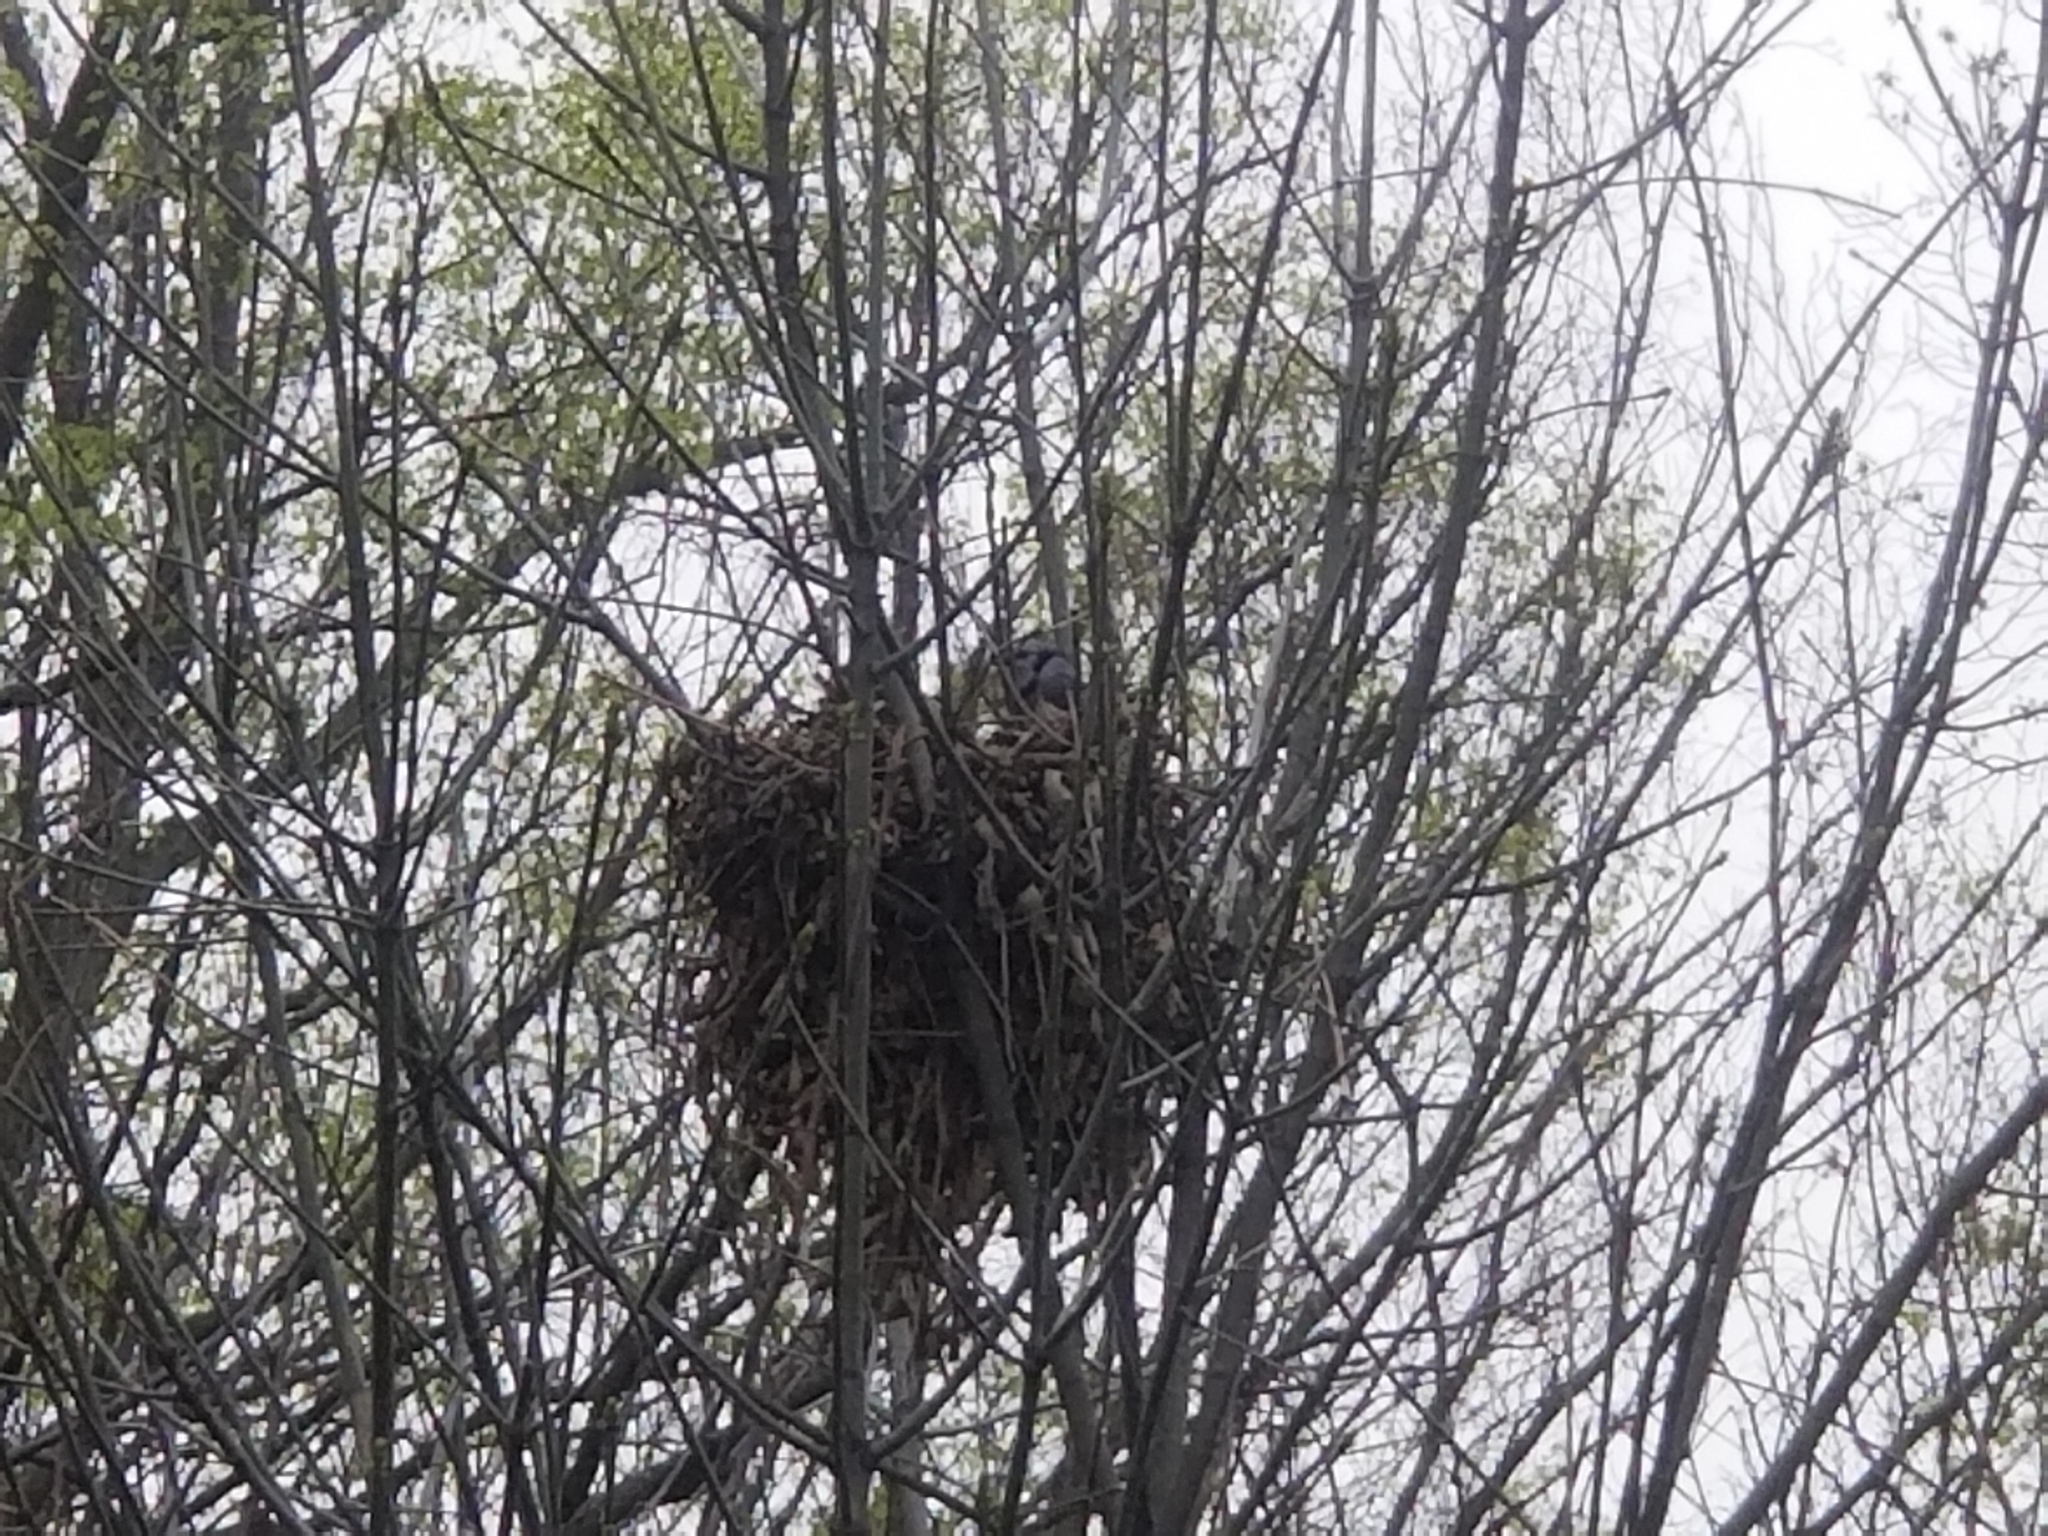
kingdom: Animalia
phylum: Chordata
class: Aves
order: Passeriformes
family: Corvidae
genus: Cyanocitta
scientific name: Cyanocitta cristata
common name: Blue jay
